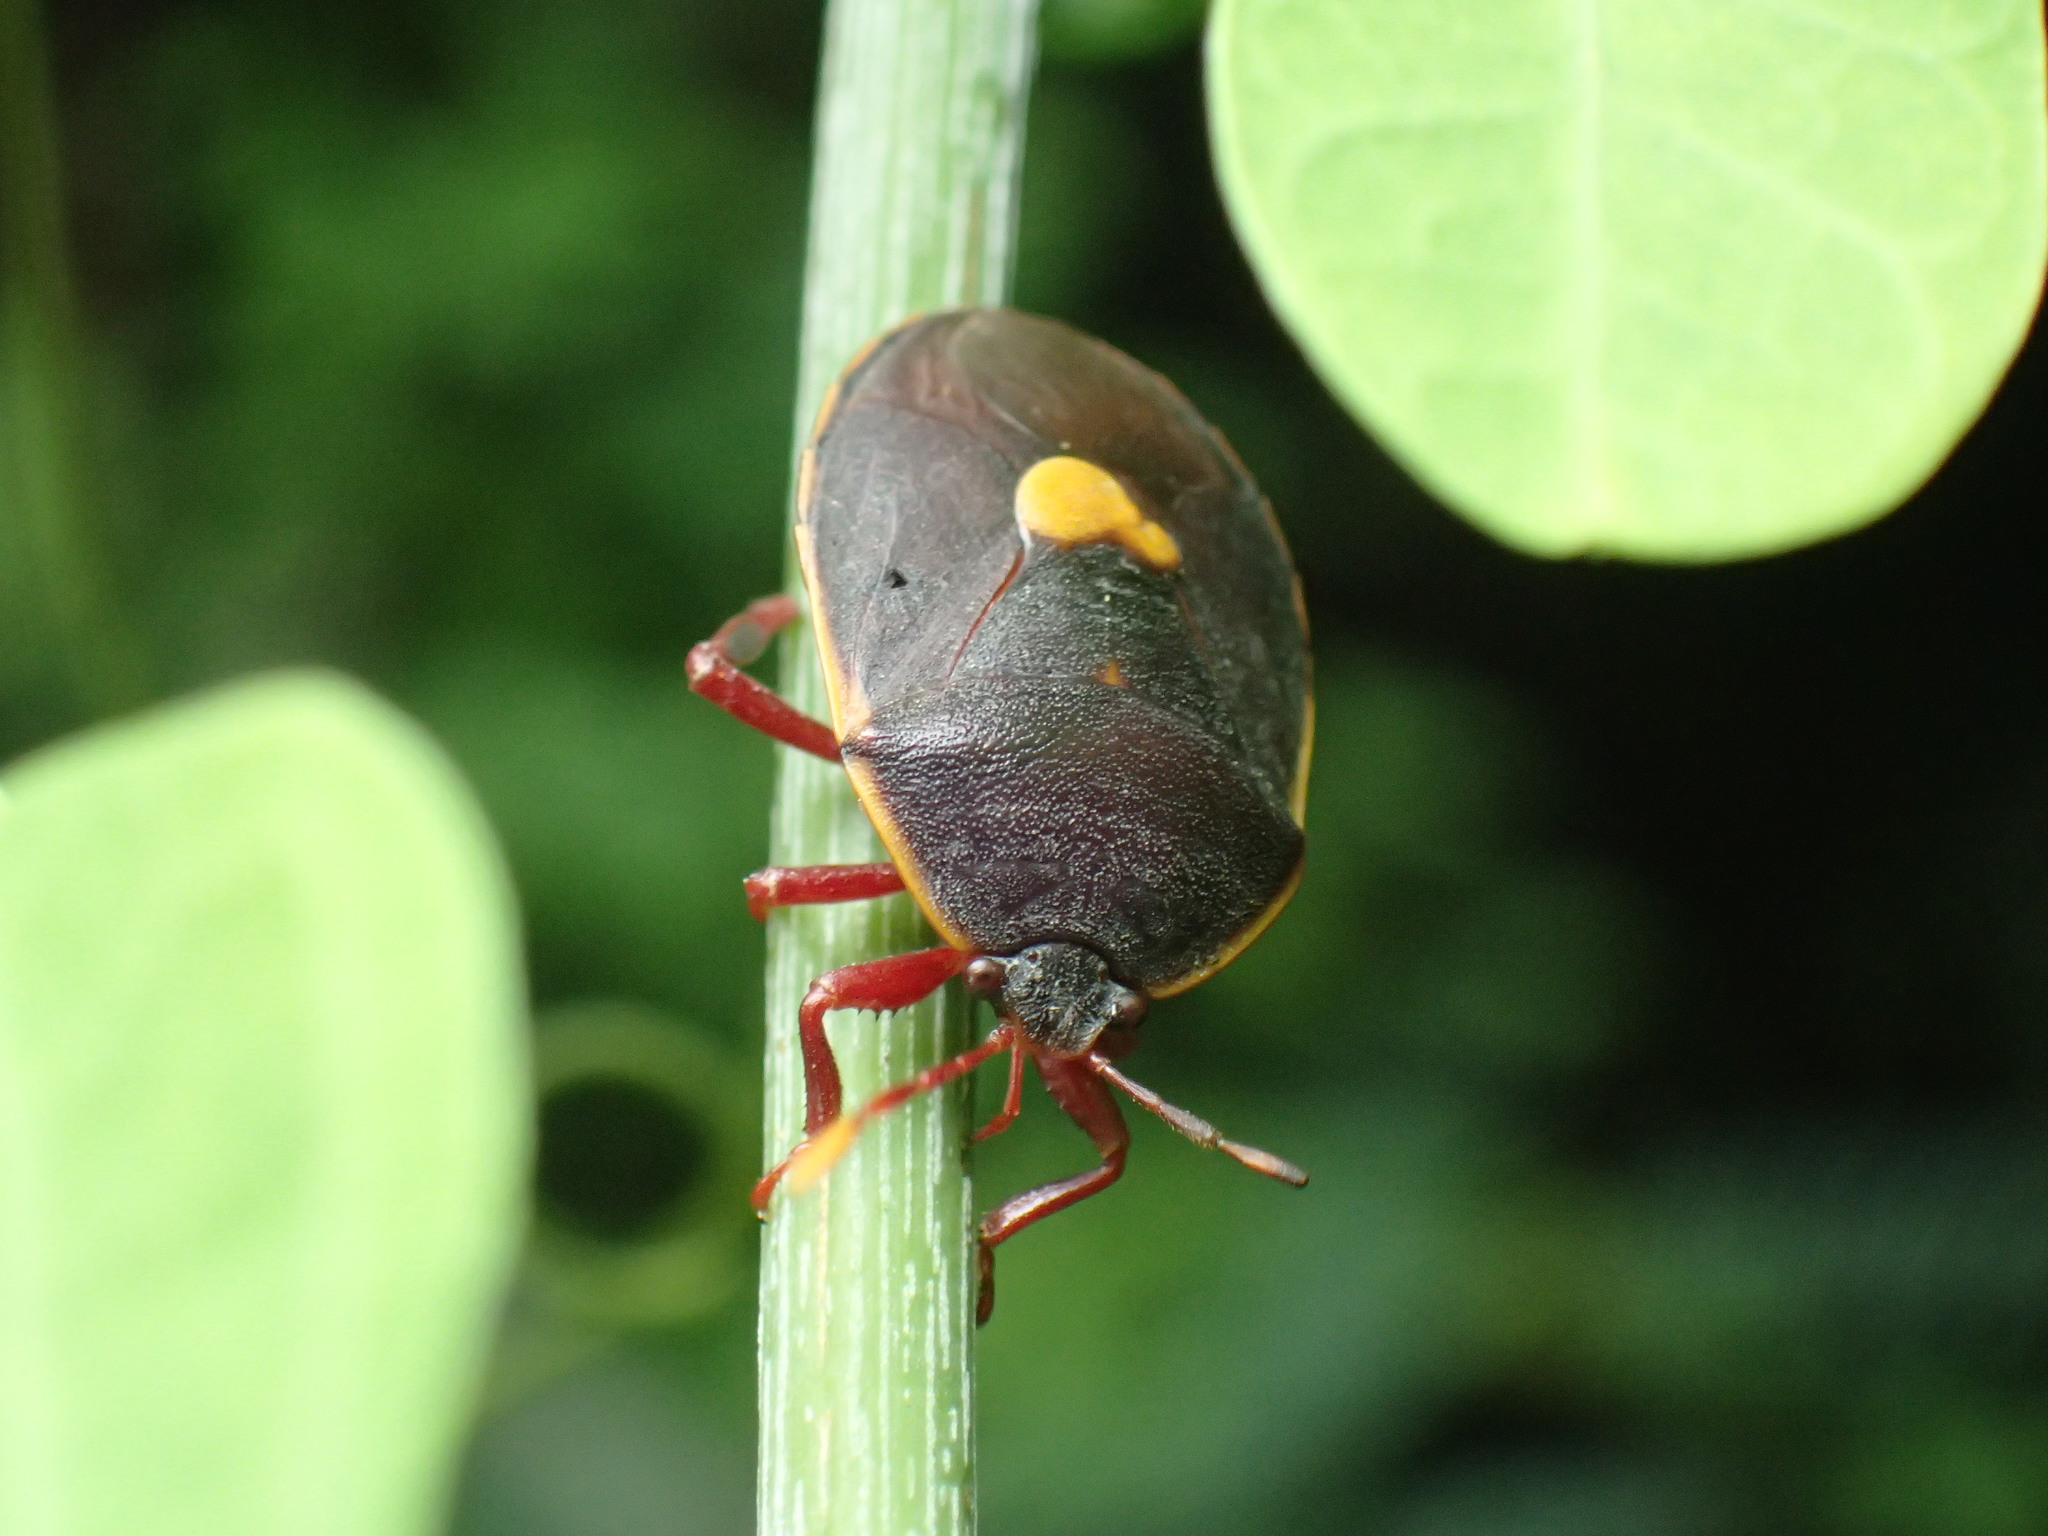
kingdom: Animalia
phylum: Arthropoda
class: Insecta
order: Hemiptera
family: Dinidoridae
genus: Colpoproctus
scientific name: Colpoproctus pullus
